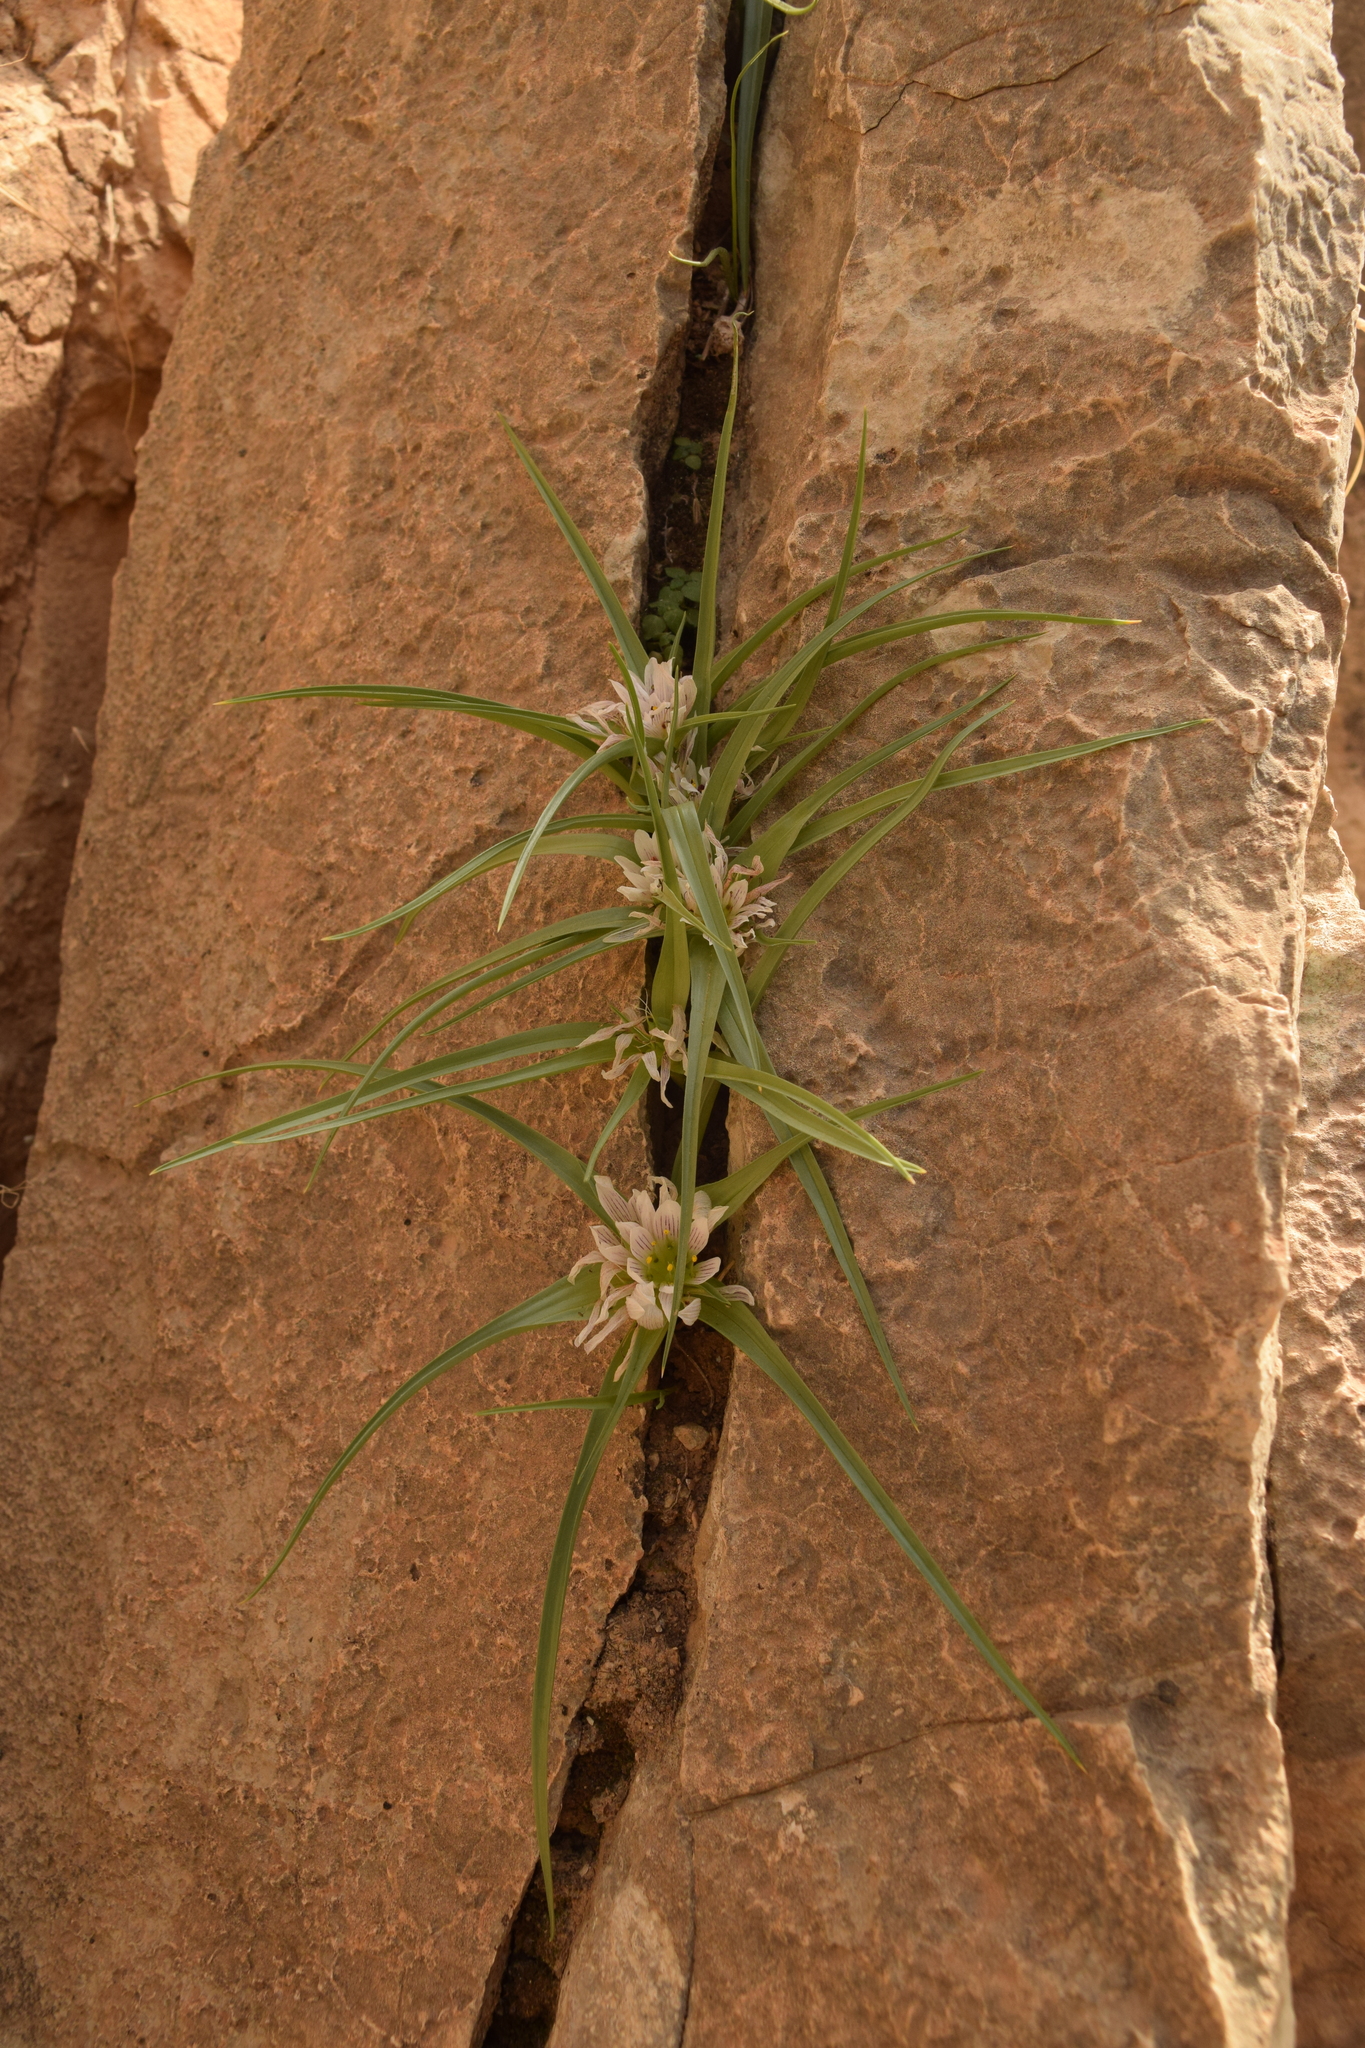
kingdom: Plantae
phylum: Tracheophyta
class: Liliopsida
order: Liliales
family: Colchicaceae
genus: Colchicum
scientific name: Colchicum palaestinum
